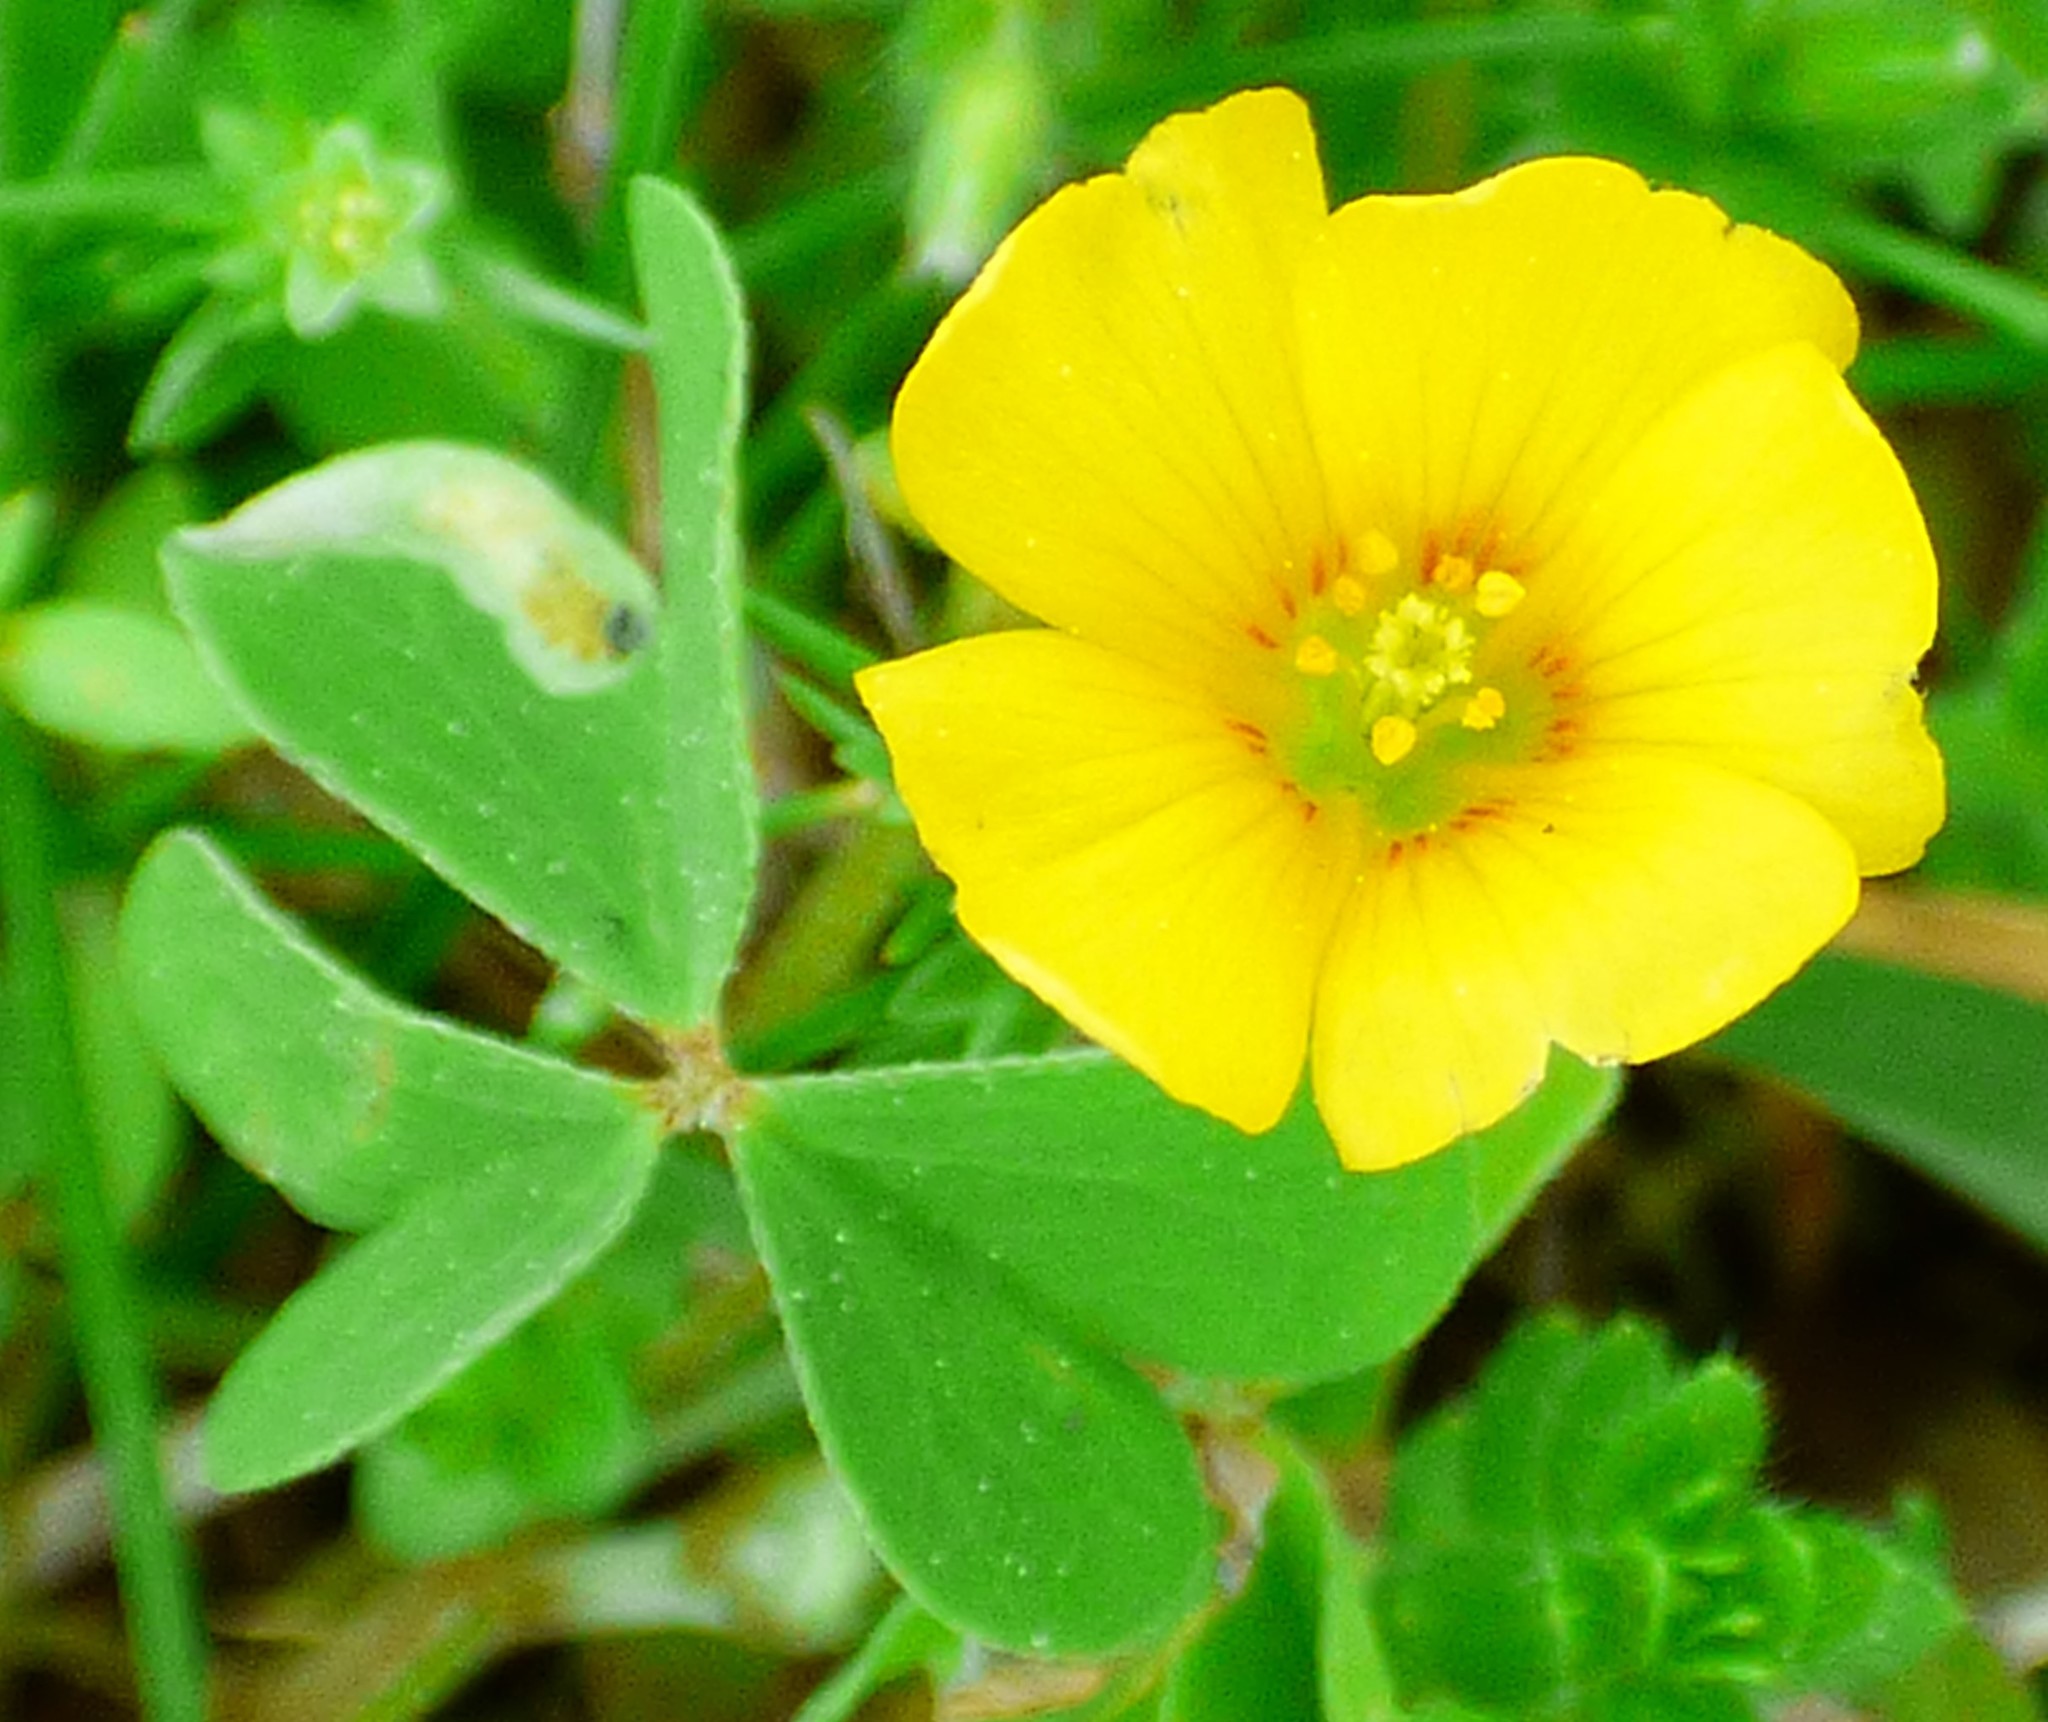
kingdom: Plantae
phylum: Tracheophyta
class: Magnoliopsida
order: Oxalidales
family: Oxalidaceae
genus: Oxalis
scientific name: Oxalis dillenii
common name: Sussex yellow-sorrel
